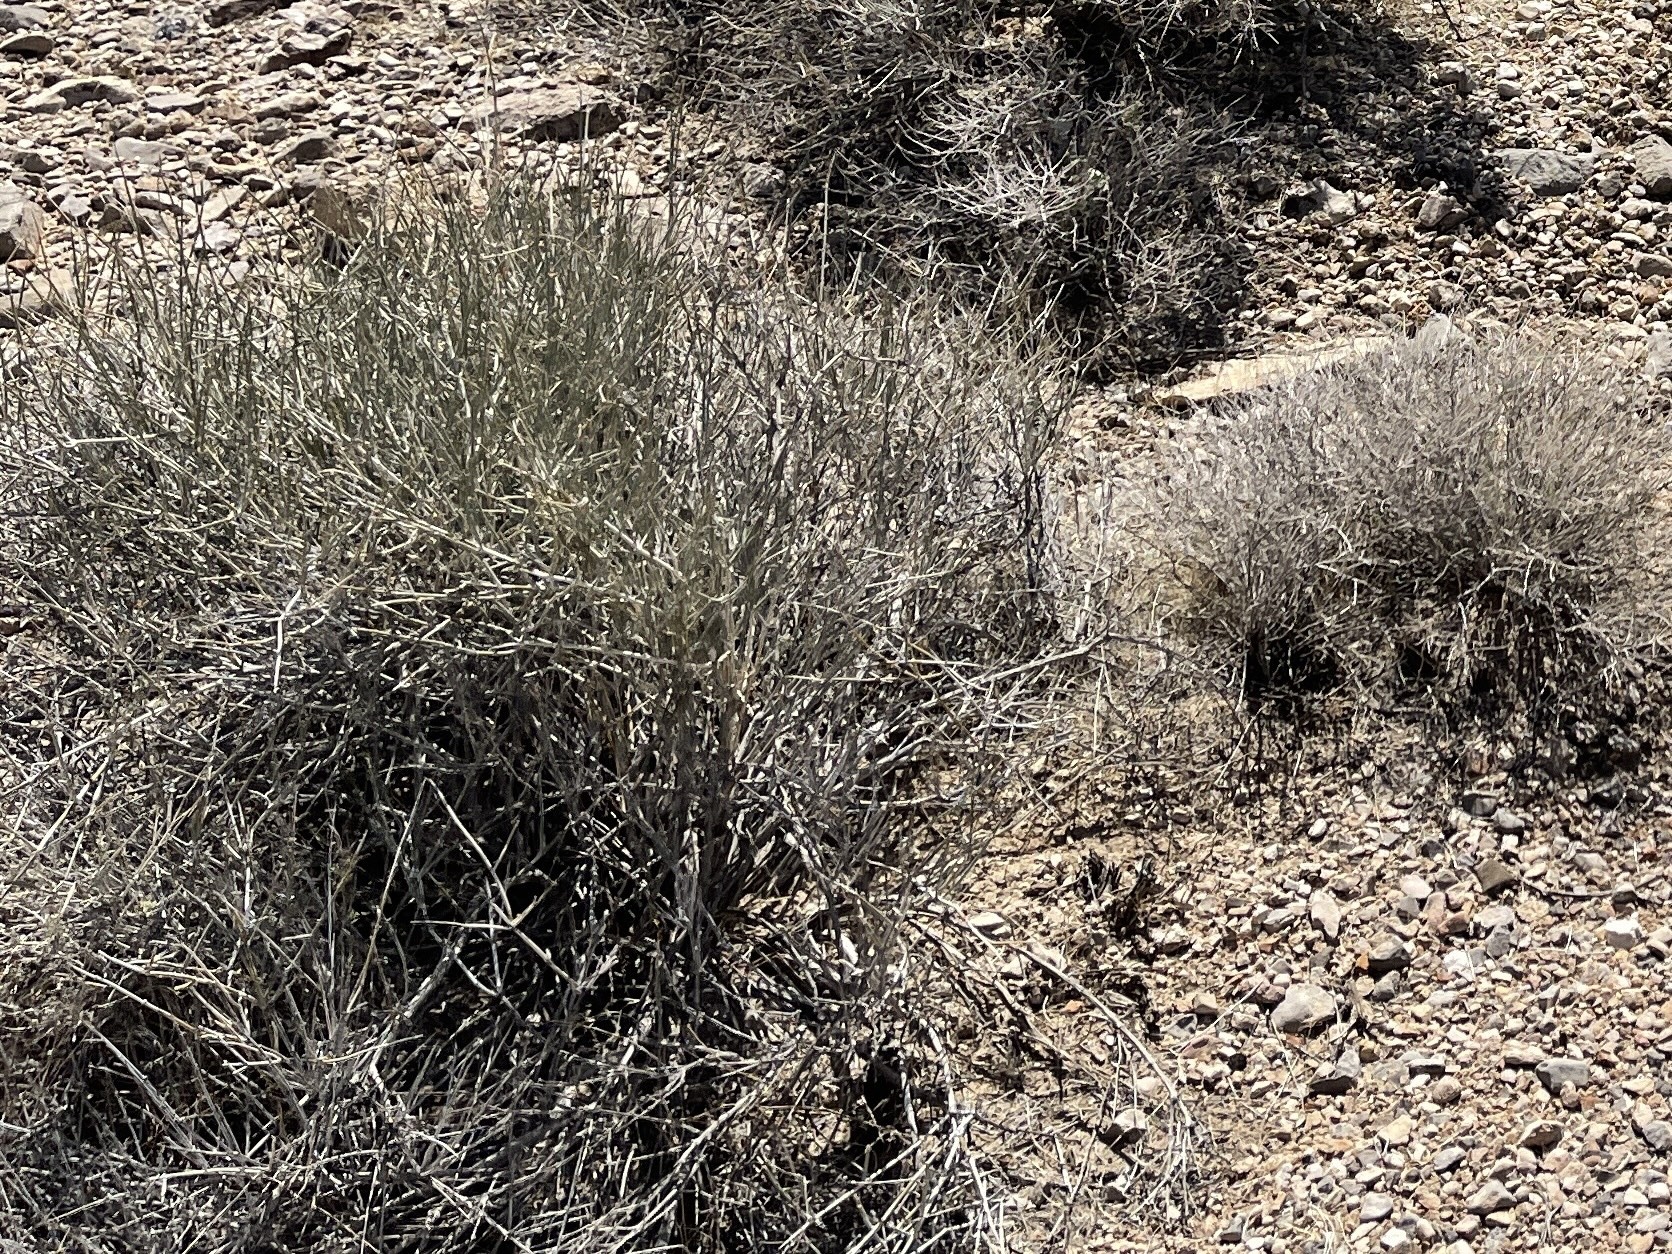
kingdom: Plantae
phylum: Tracheophyta
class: Gnetopsida
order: Ephedrales
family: Ephedraceae
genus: Ephedra
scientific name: Ephedra nevadensis
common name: Gray ephedra
